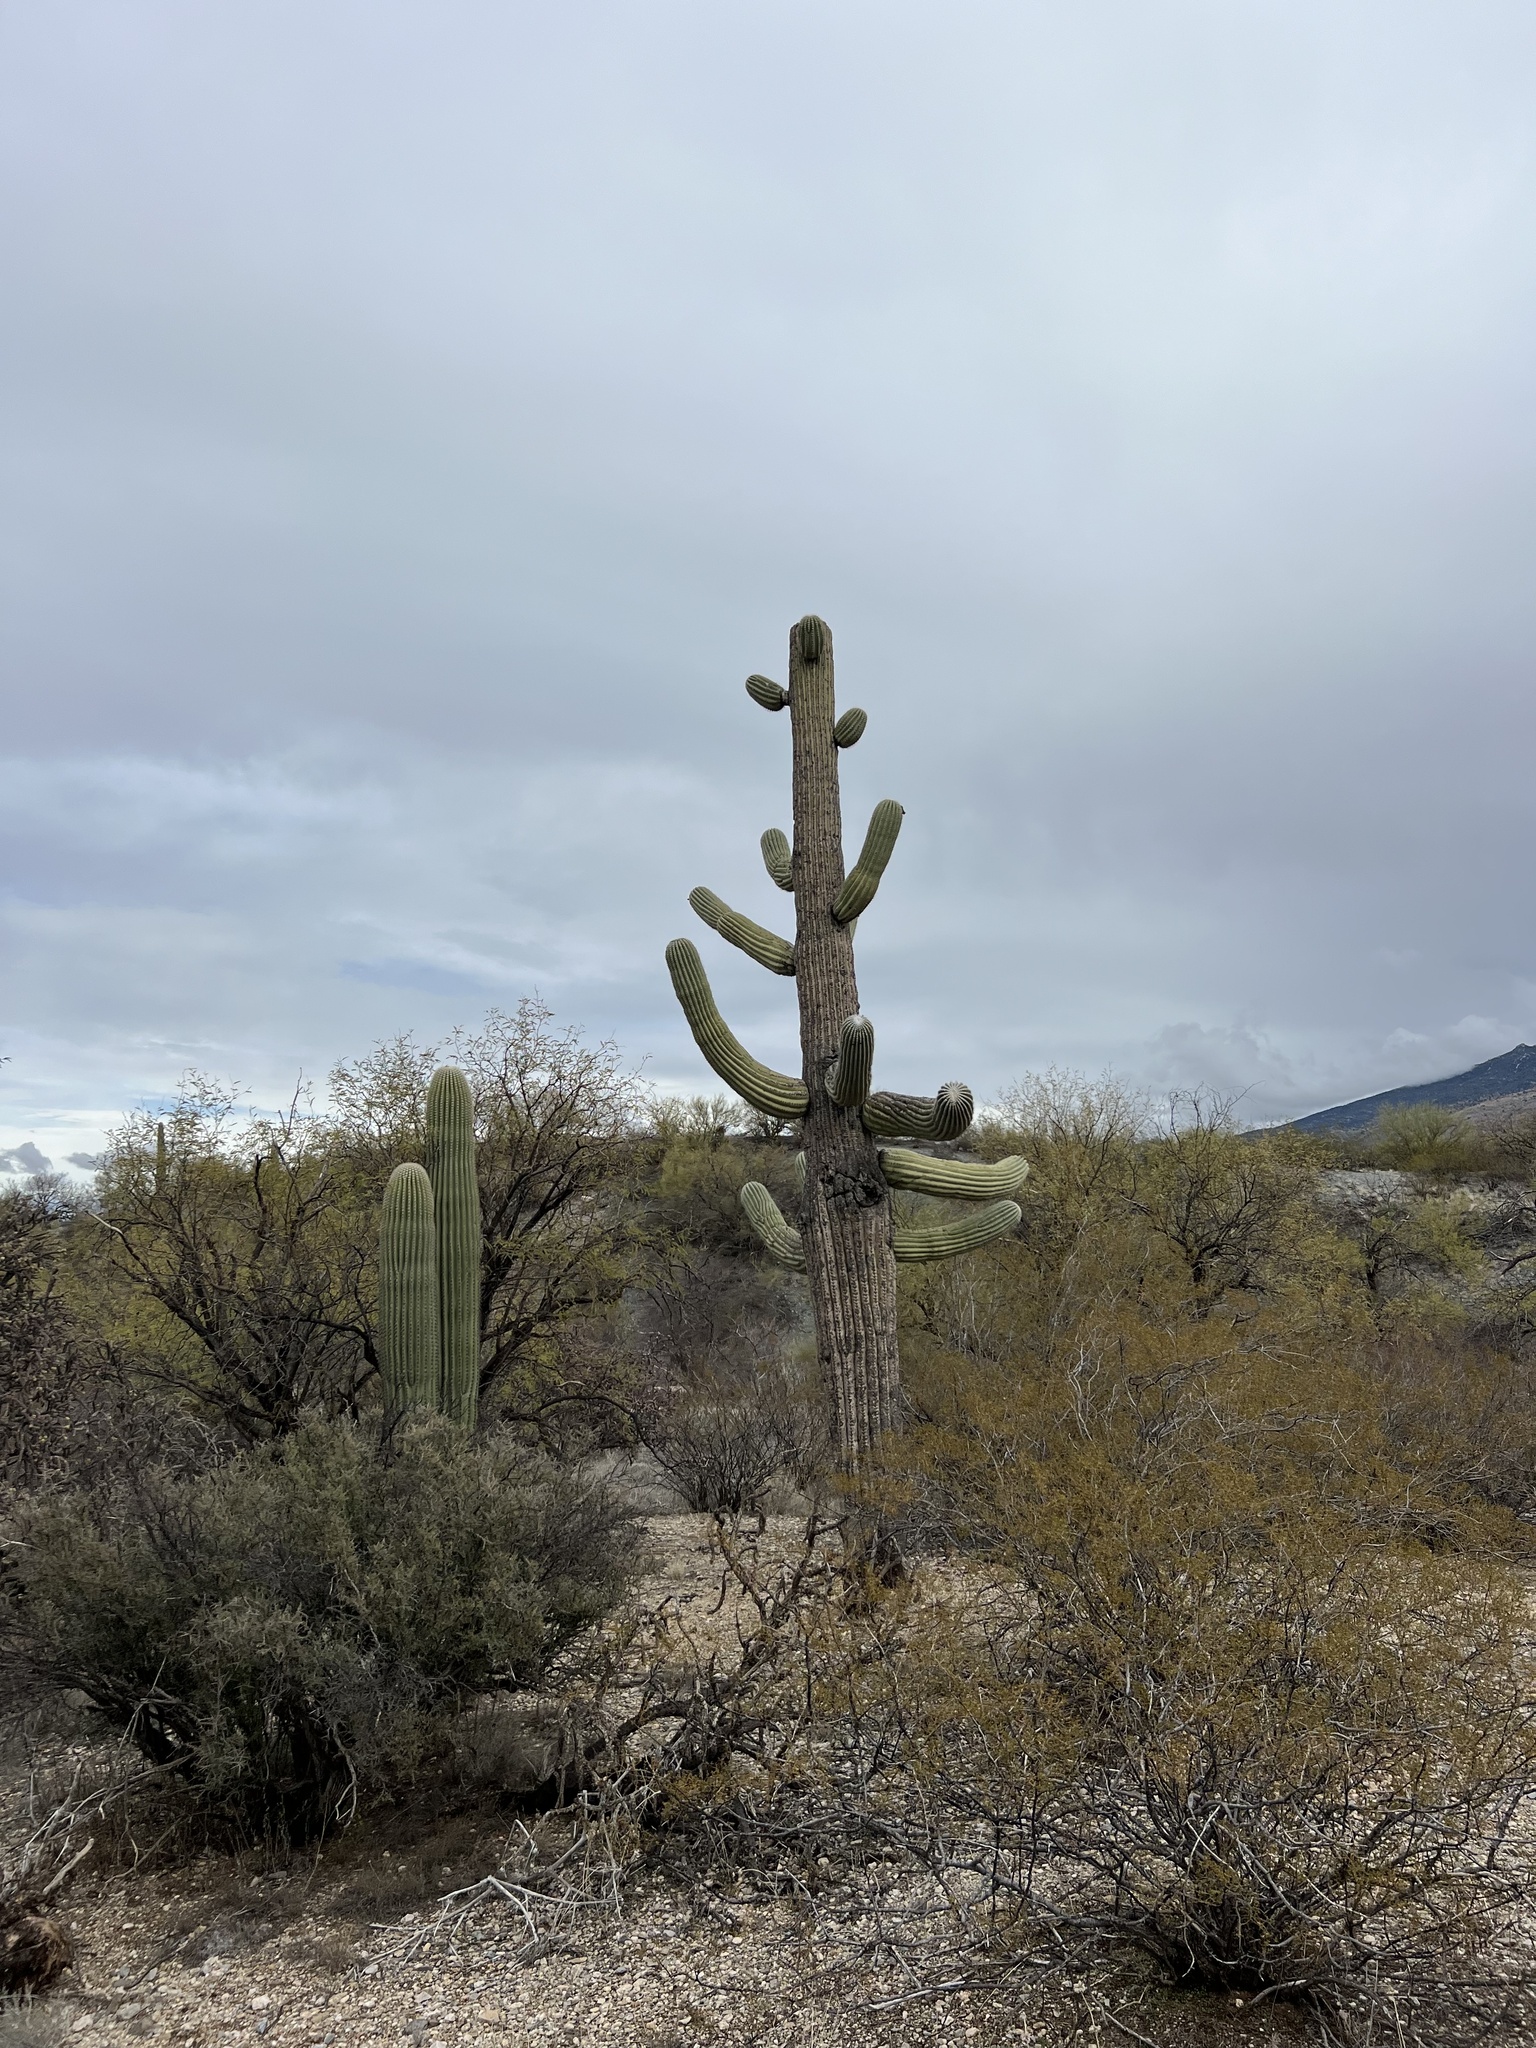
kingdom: Plantae
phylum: Tracheophyta
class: Magnoliopsida
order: Caryophyllales
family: Cactaceae
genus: Carnegiea
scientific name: Carnegiea gigantea
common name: Saguaro
